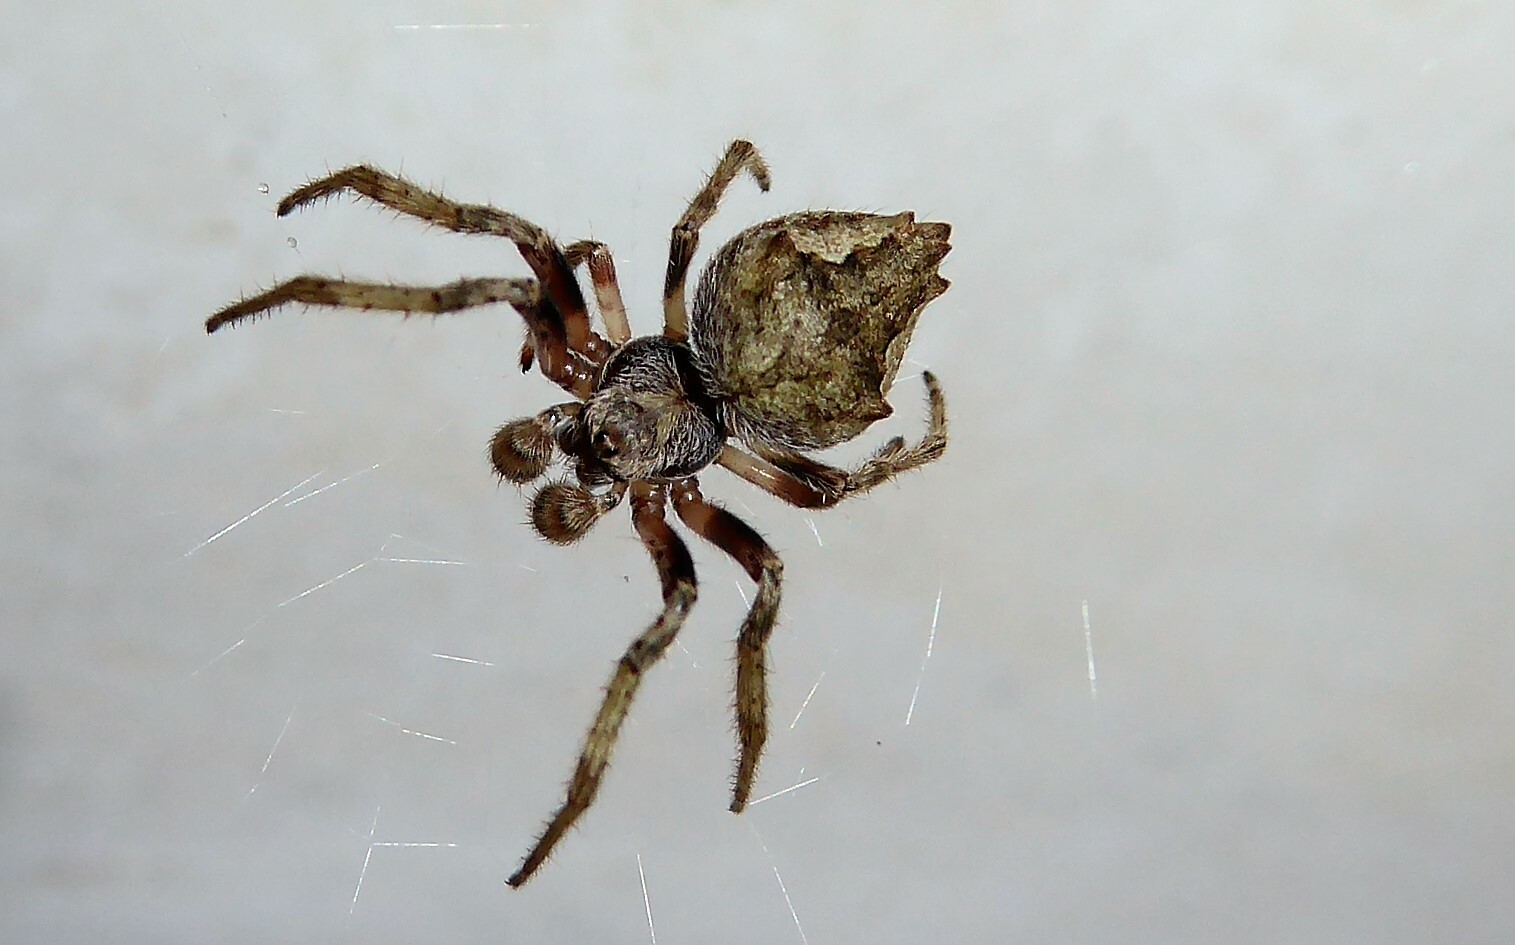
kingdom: Animalia
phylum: Arthropoda
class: Arachnida
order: Araneae
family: Araneidae
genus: Eriophora
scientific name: Eriophora pustulosa
